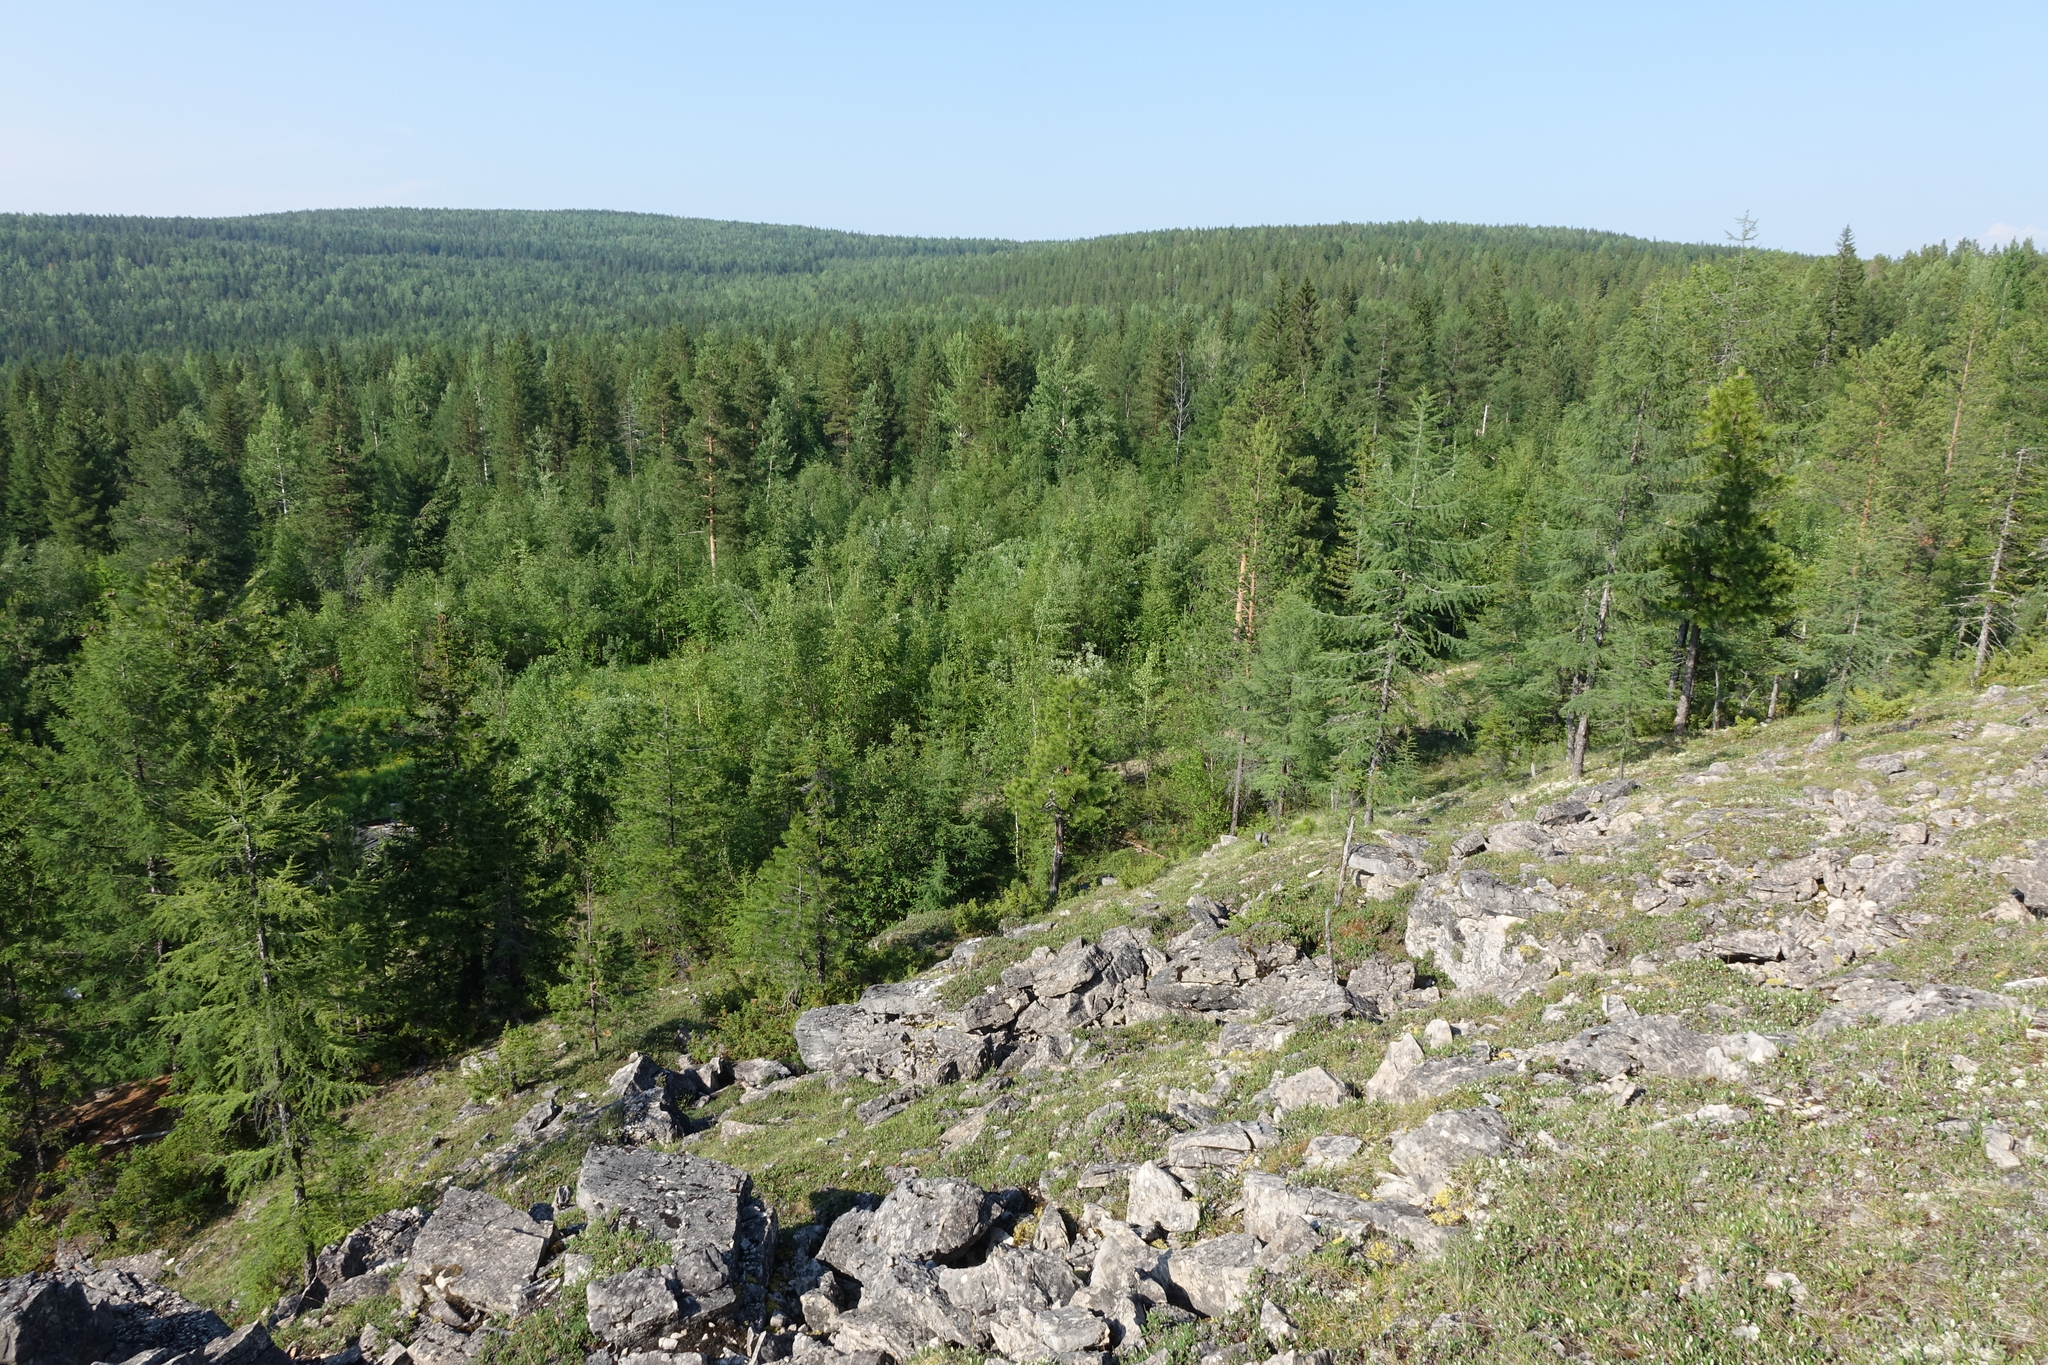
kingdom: Plantae
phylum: Tracheophyta
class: Pinopsida
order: Pinales
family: Pinaceae
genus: Larix
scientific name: Larix gmelinii
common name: Dahurian larch
